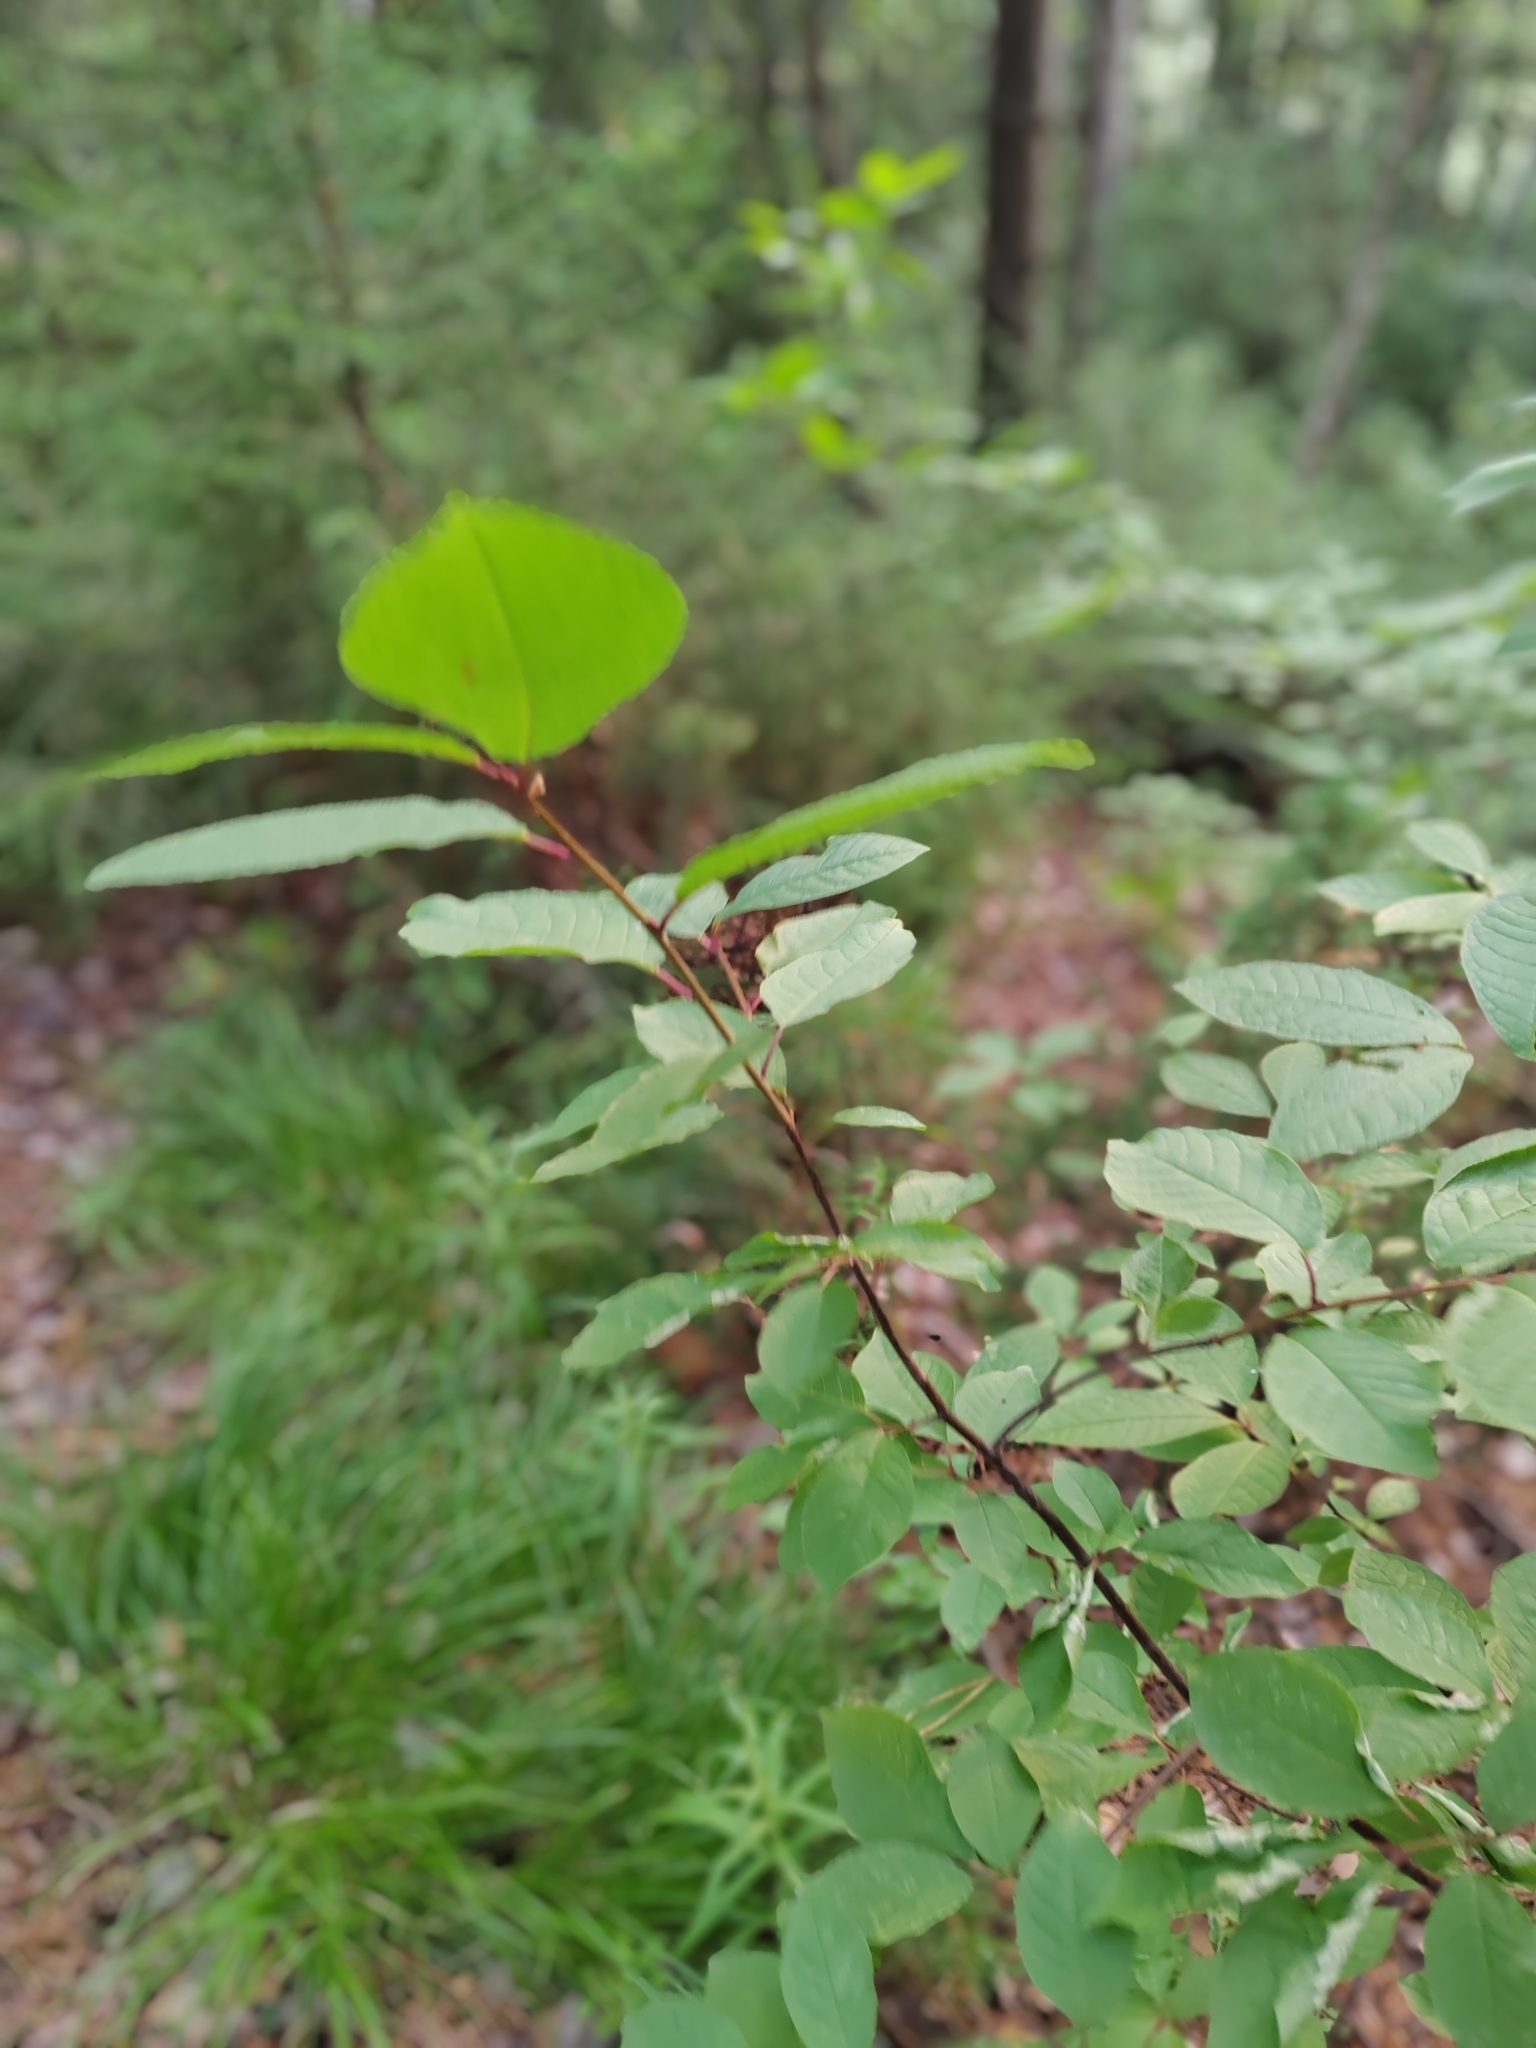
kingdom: Plantae
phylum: Tracheophyta
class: Magnoliopsida
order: Rosales
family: Rosaceae
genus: Prunus
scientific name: Prunus padus
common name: Bird cherry
